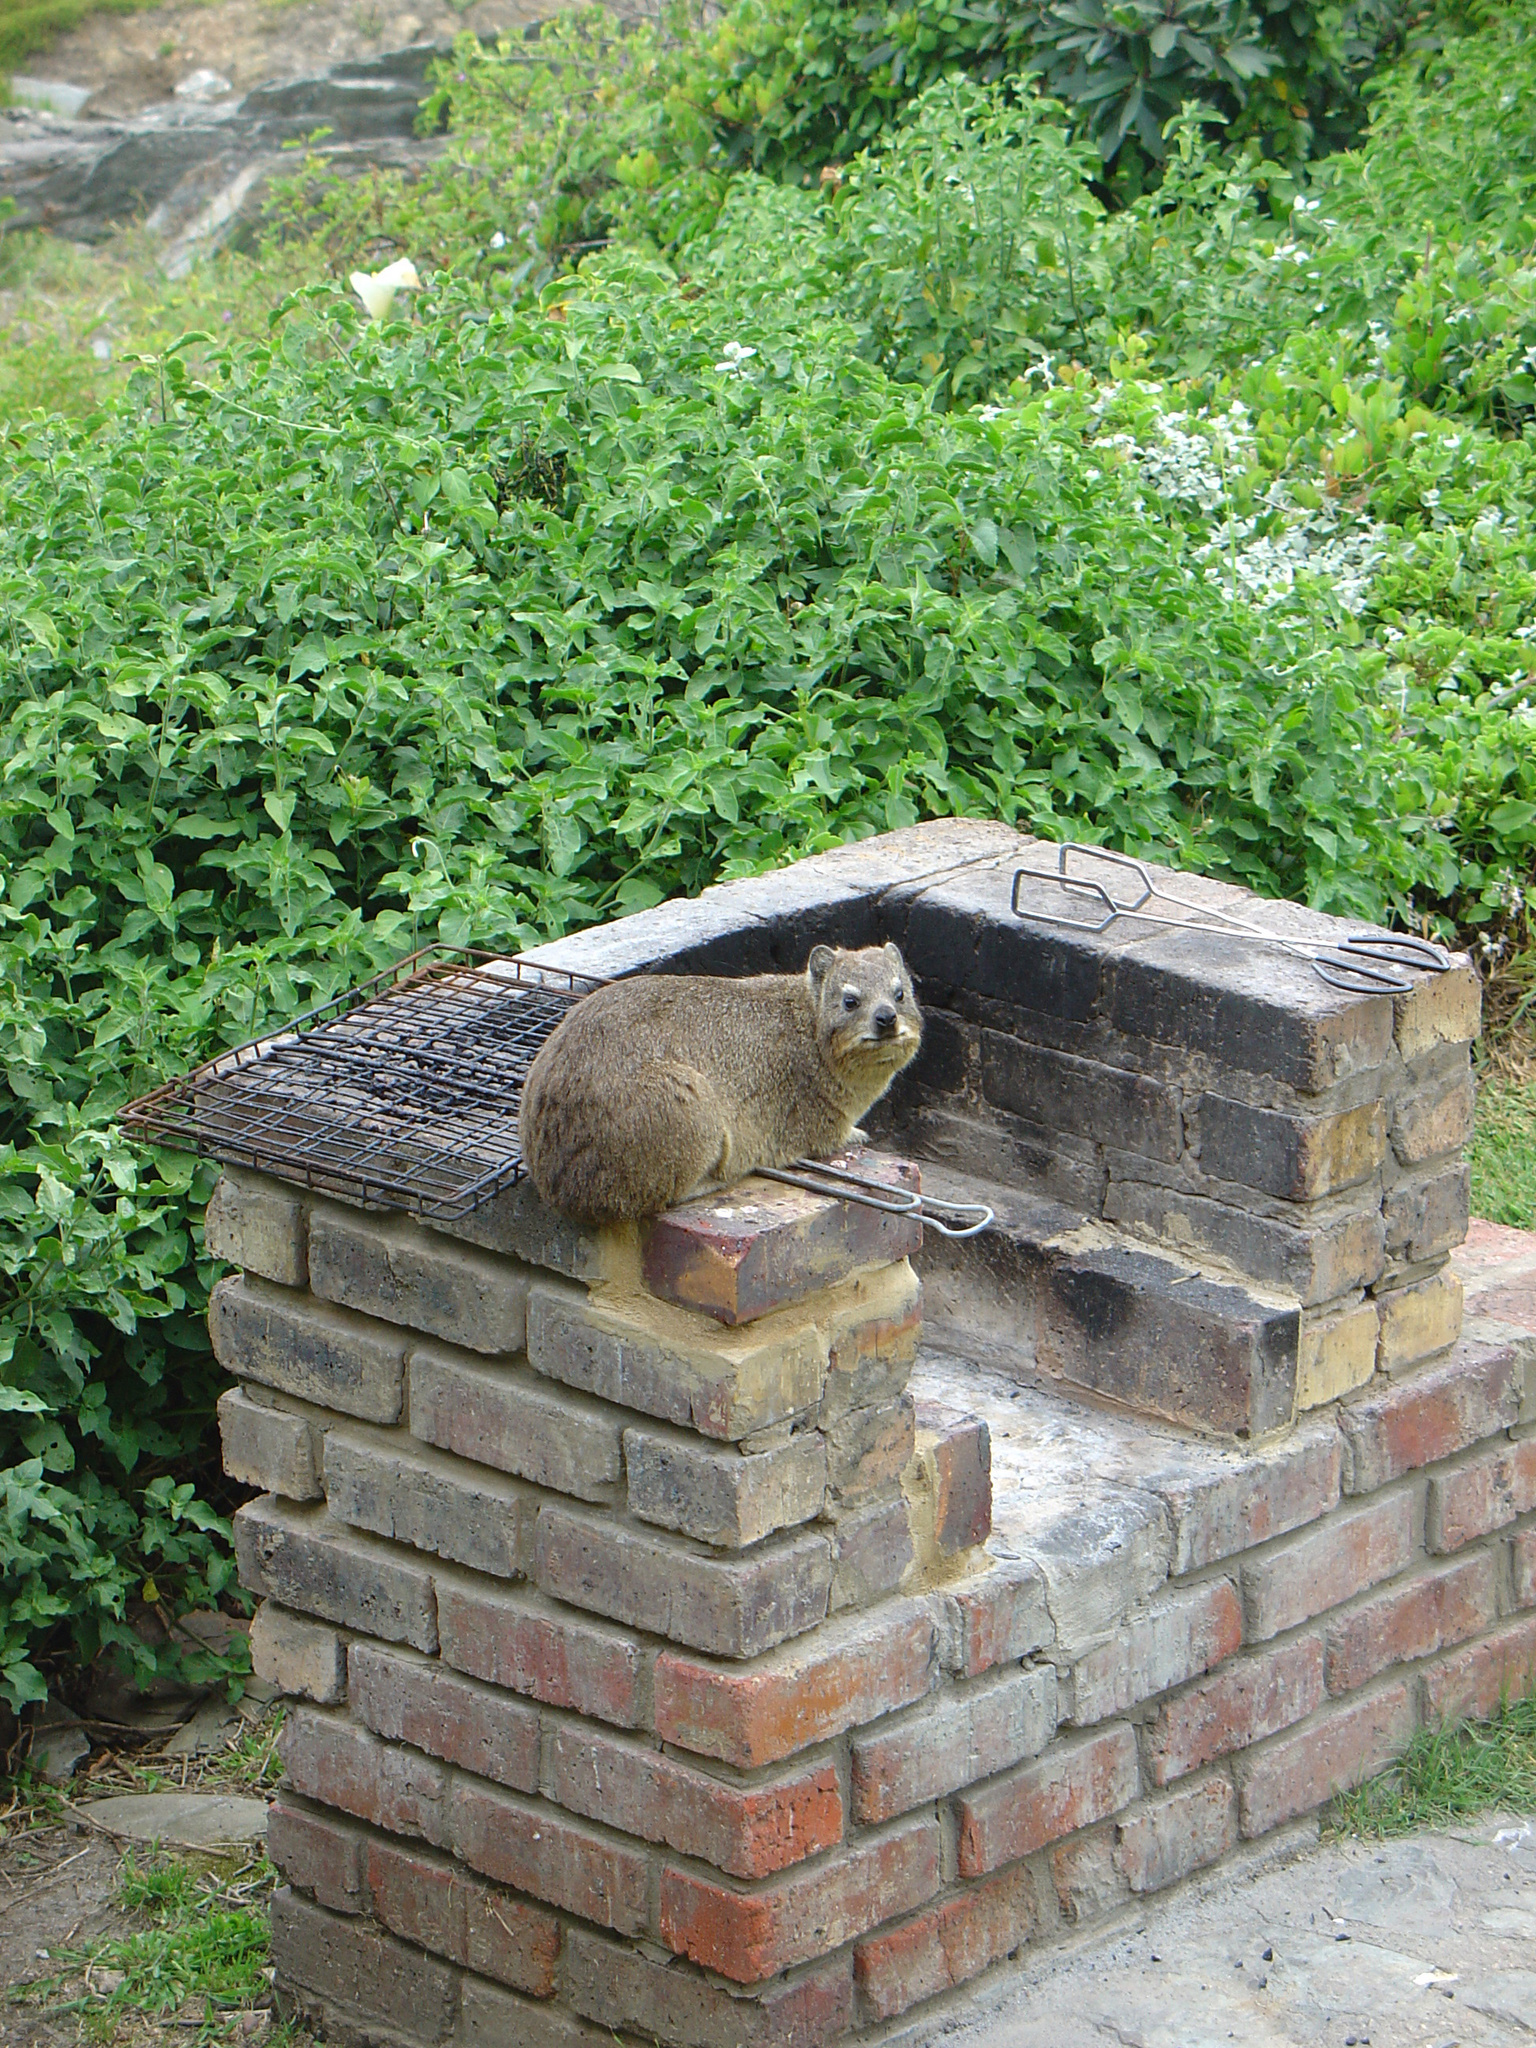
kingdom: Animalia
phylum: Chordata
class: Mammalia
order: Hyracoidea
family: Procaviidae
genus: Procavia
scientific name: Procavia capensis
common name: Rock hyrax
